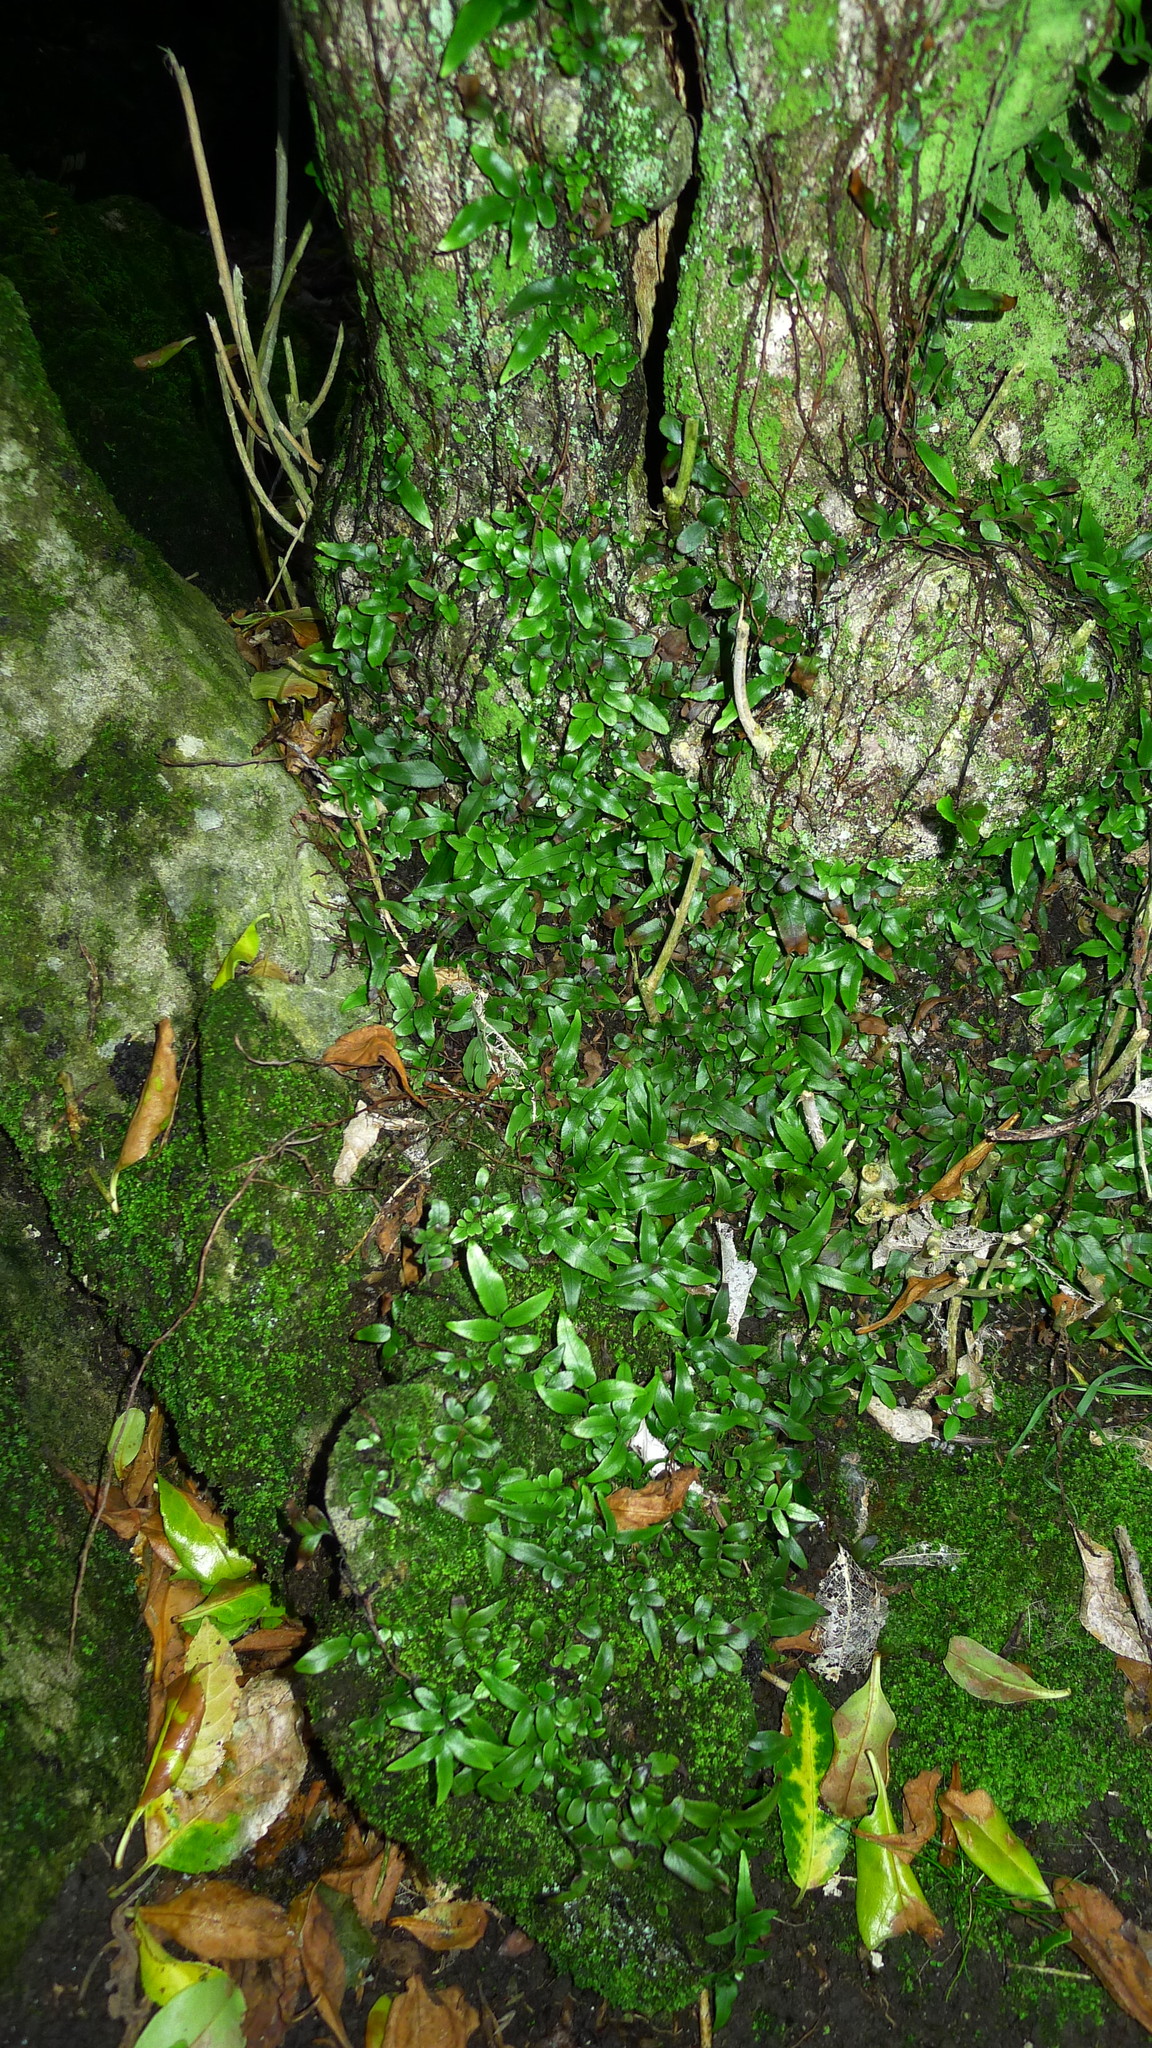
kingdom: Plantae
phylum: Tracheophyta
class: Polypodiopsida
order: Polypodiales
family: Tectariaceae
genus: Arthropteris
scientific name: Arthropteris tenella
